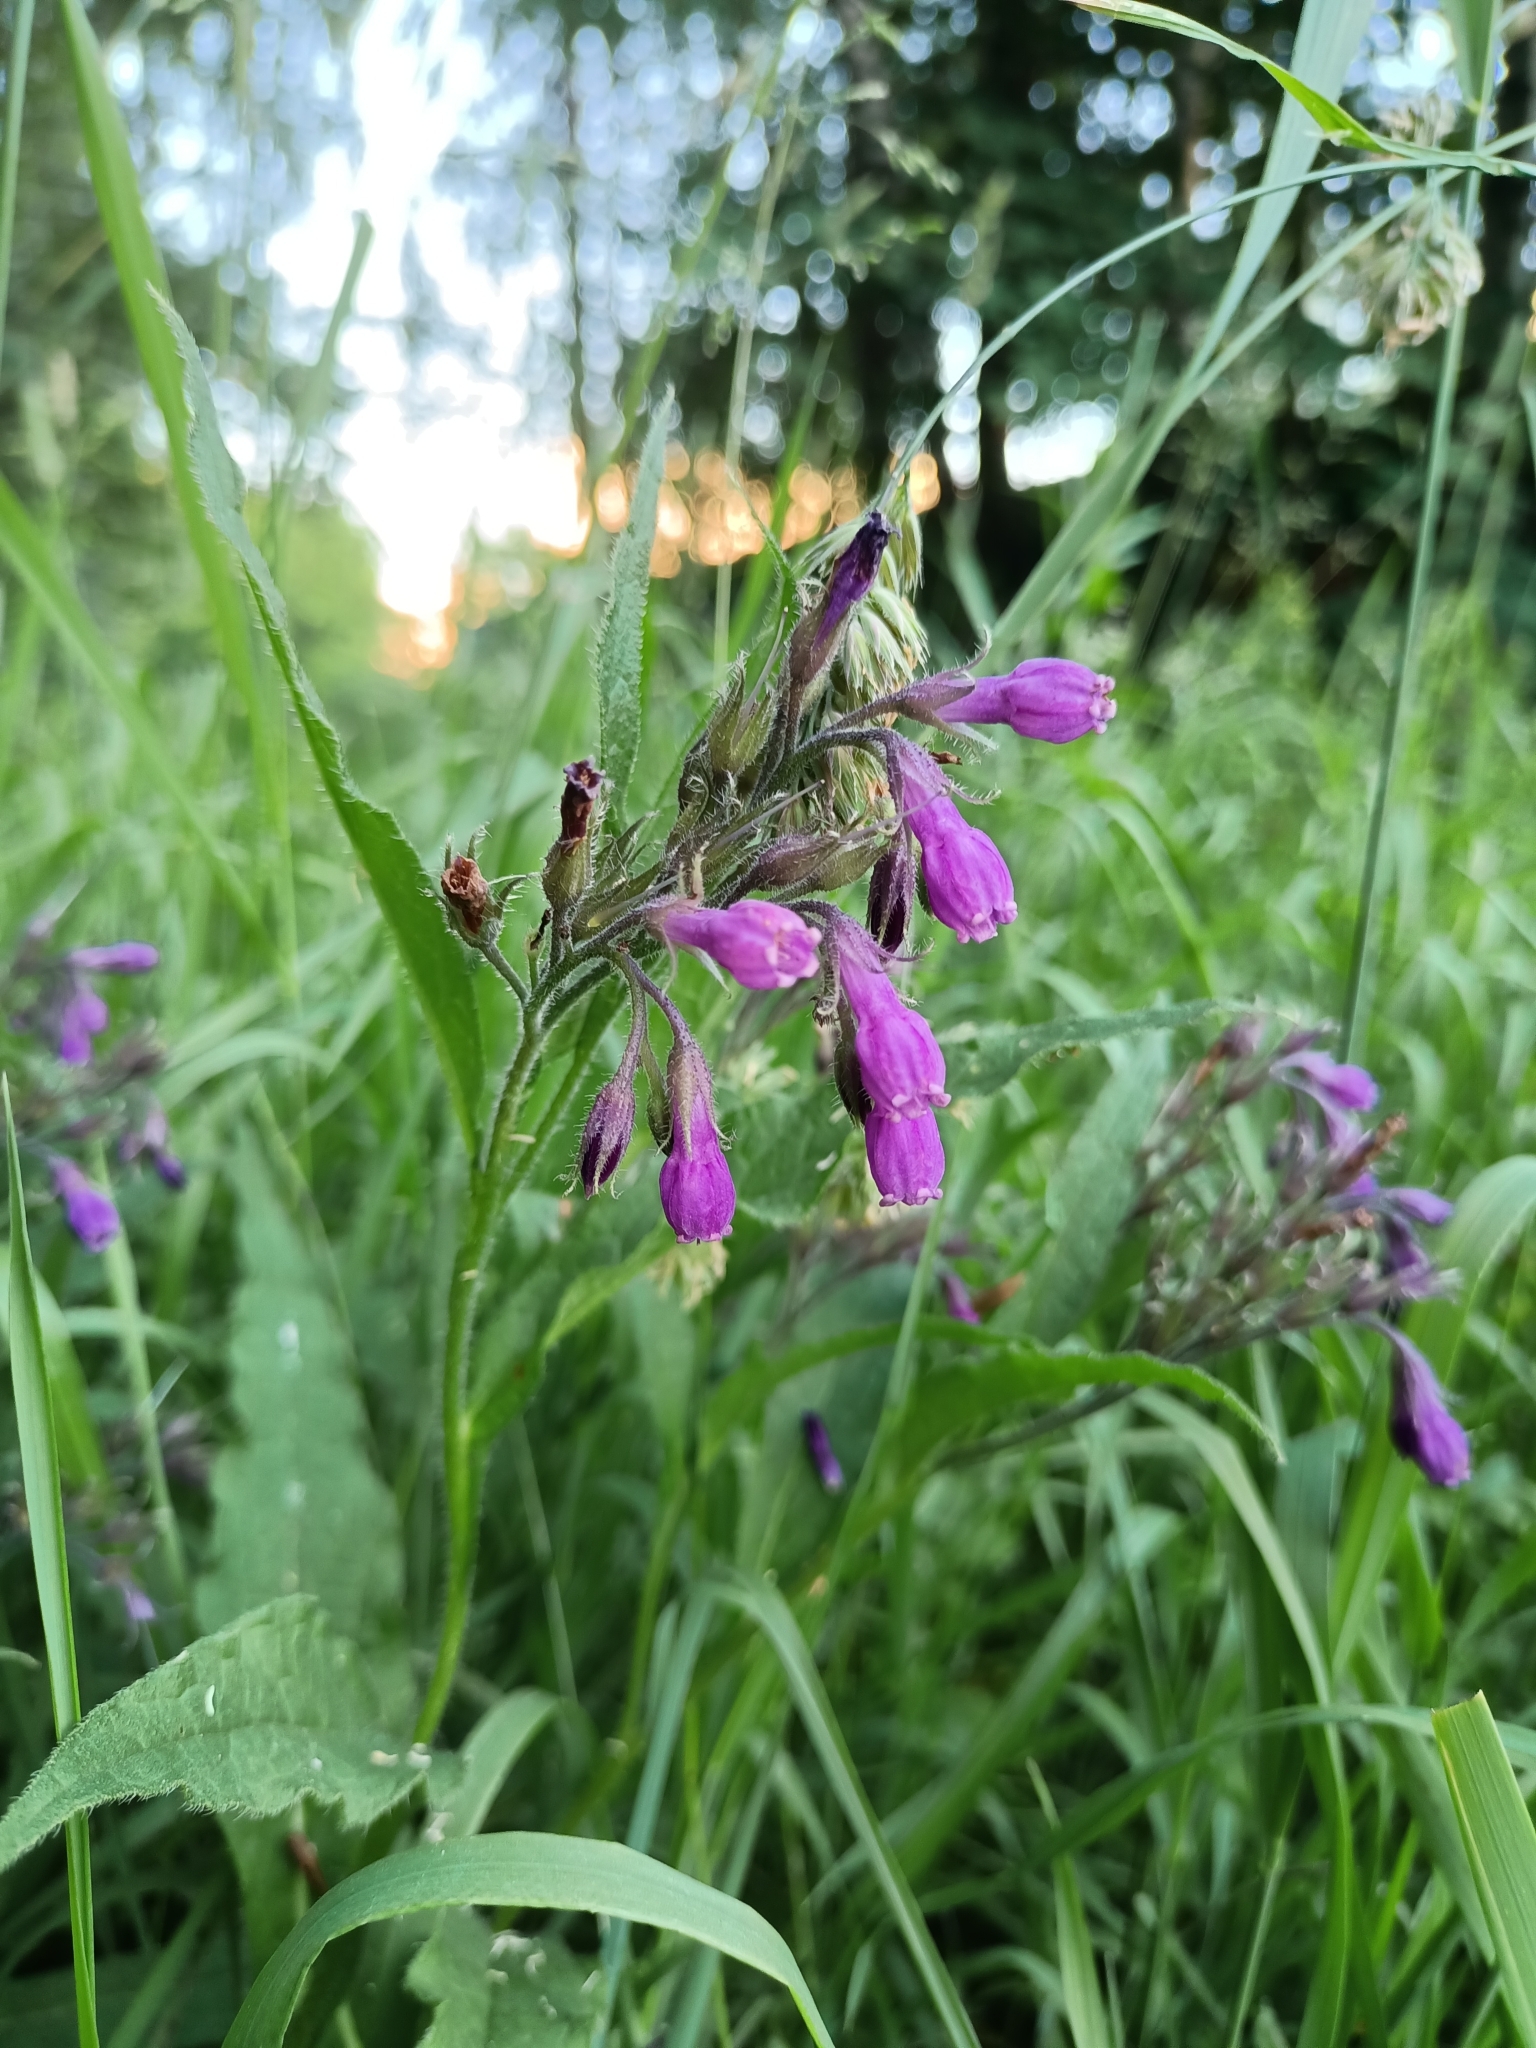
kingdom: Plantae
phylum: Tracheophyta
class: Magnoliopsida
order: Boraginales
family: Boraginaceae
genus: Symphytum
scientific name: Symphytum officinale
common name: Common comfrey
